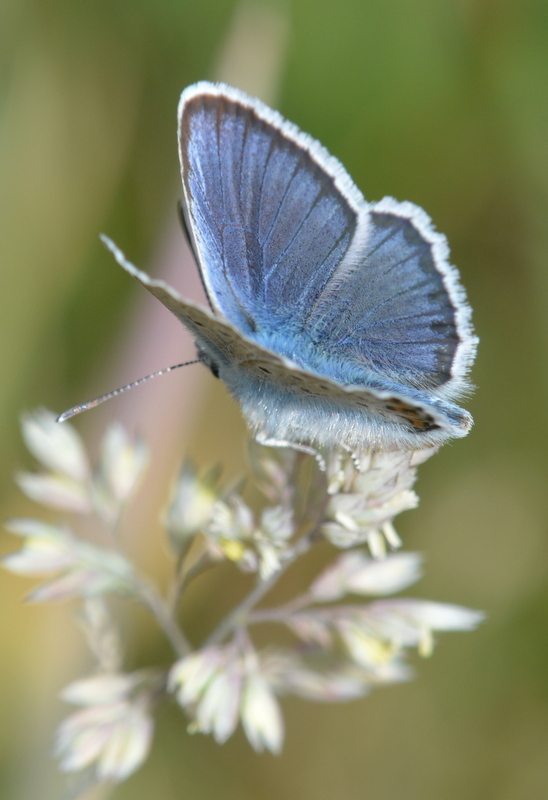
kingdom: Animalia
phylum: Arthropoda
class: Insecta
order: Lepidoptera
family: Lycaenidae
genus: Plebejus
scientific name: Plebejus argus
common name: Silver-studded blue
